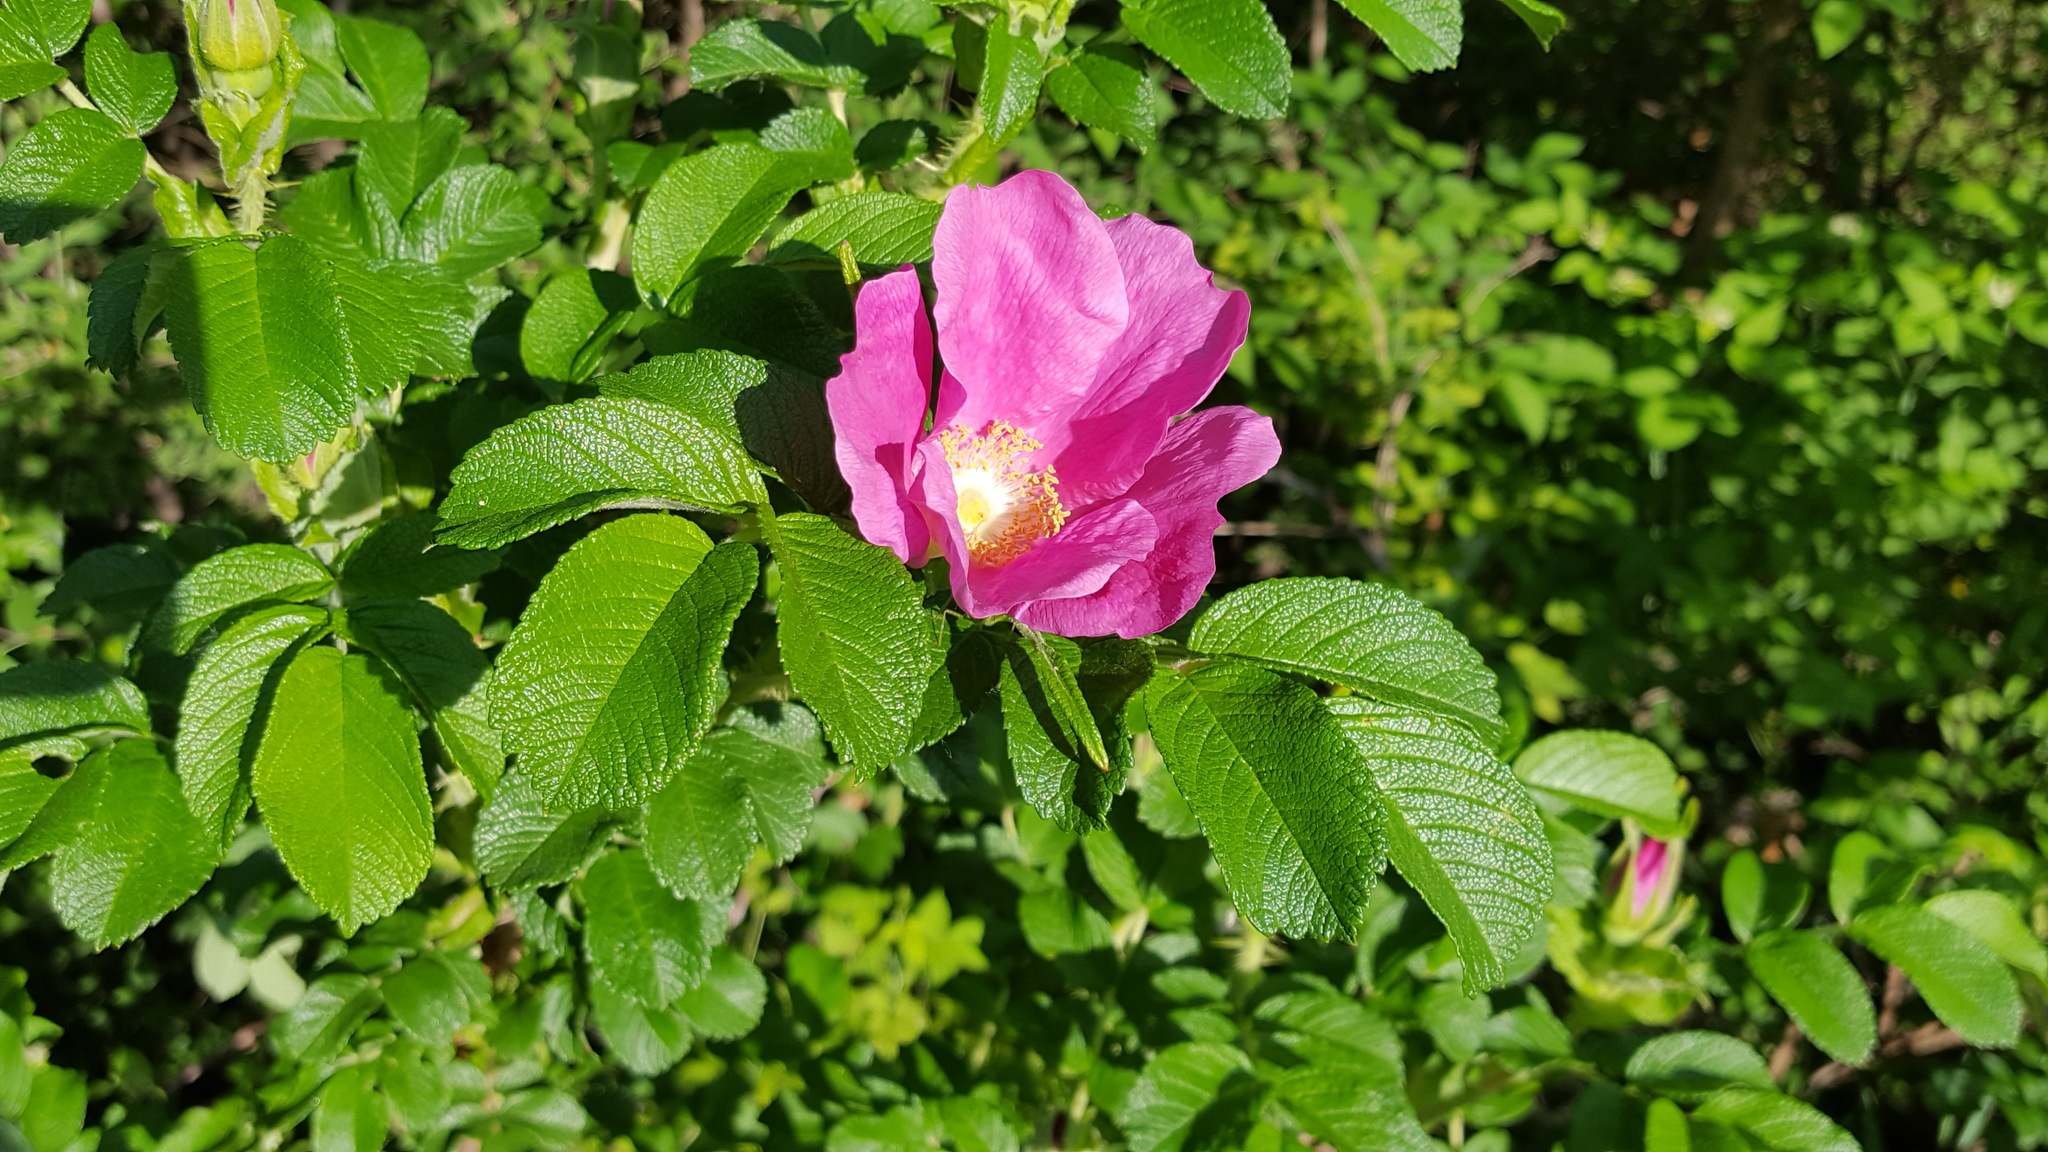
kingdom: Plantae
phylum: Tracheophyta
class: Magnoliopsida
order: Rosales
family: Rosaceae
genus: Rosa
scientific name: Rosa rugosa
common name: Japanese rose
